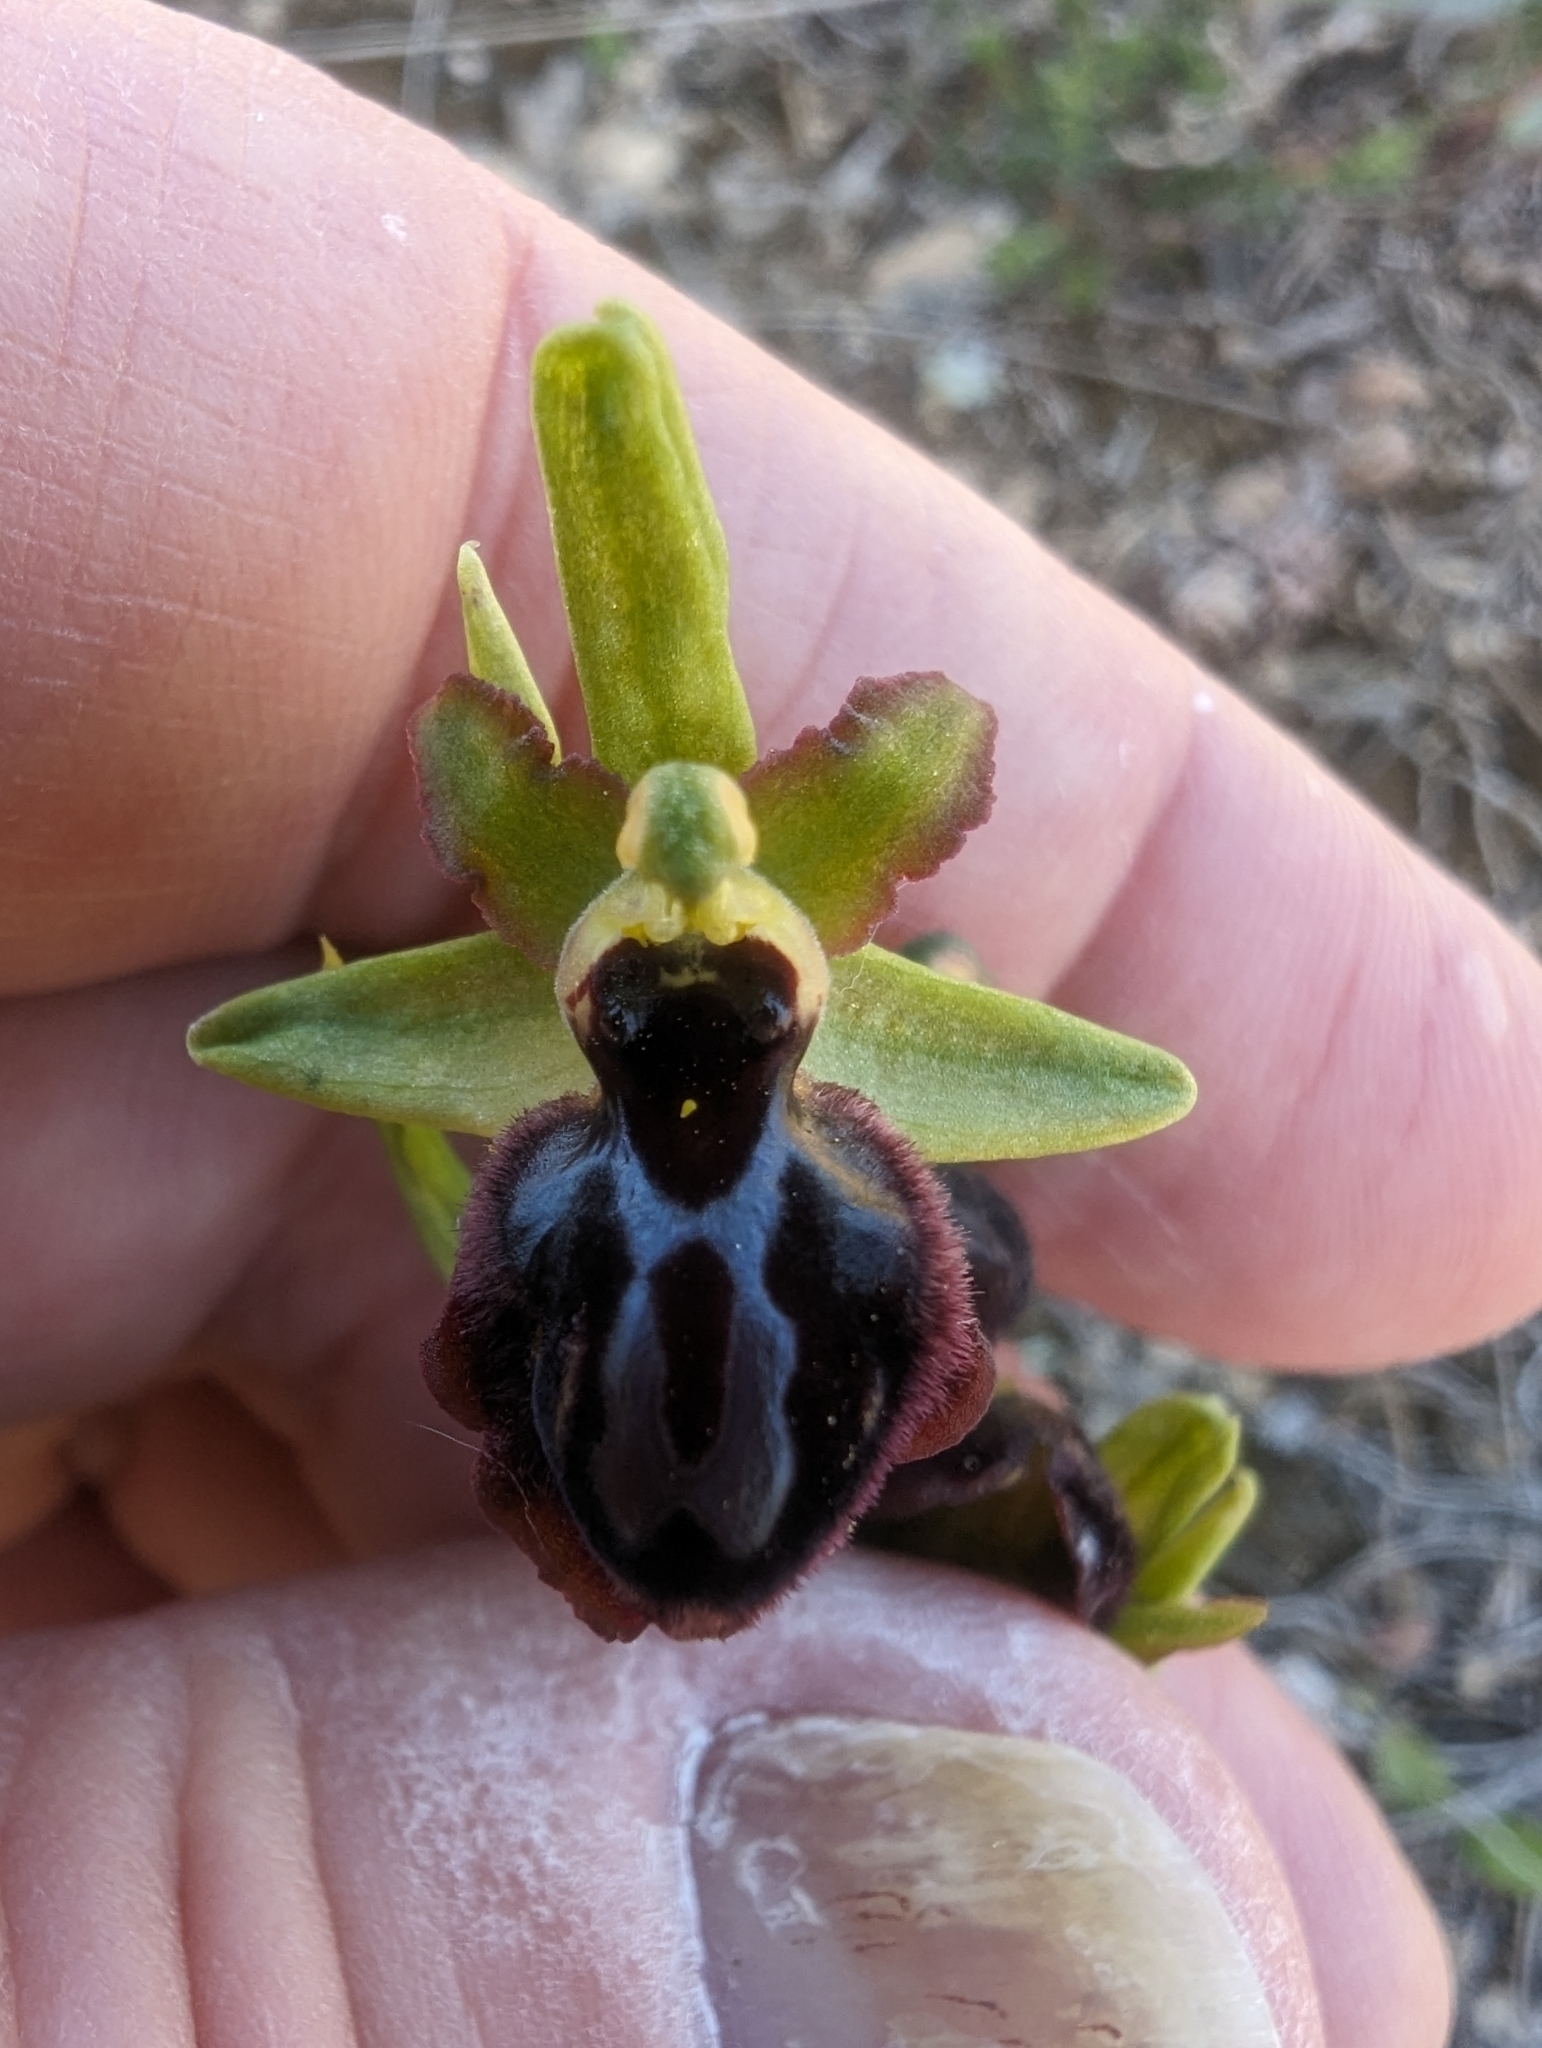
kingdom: Plantae
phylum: Tracheophyta
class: Liliopsida
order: Asparagales
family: Orchidaceae
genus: Ophrys
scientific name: Ophrys sphegodes
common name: Early spider-orchid
